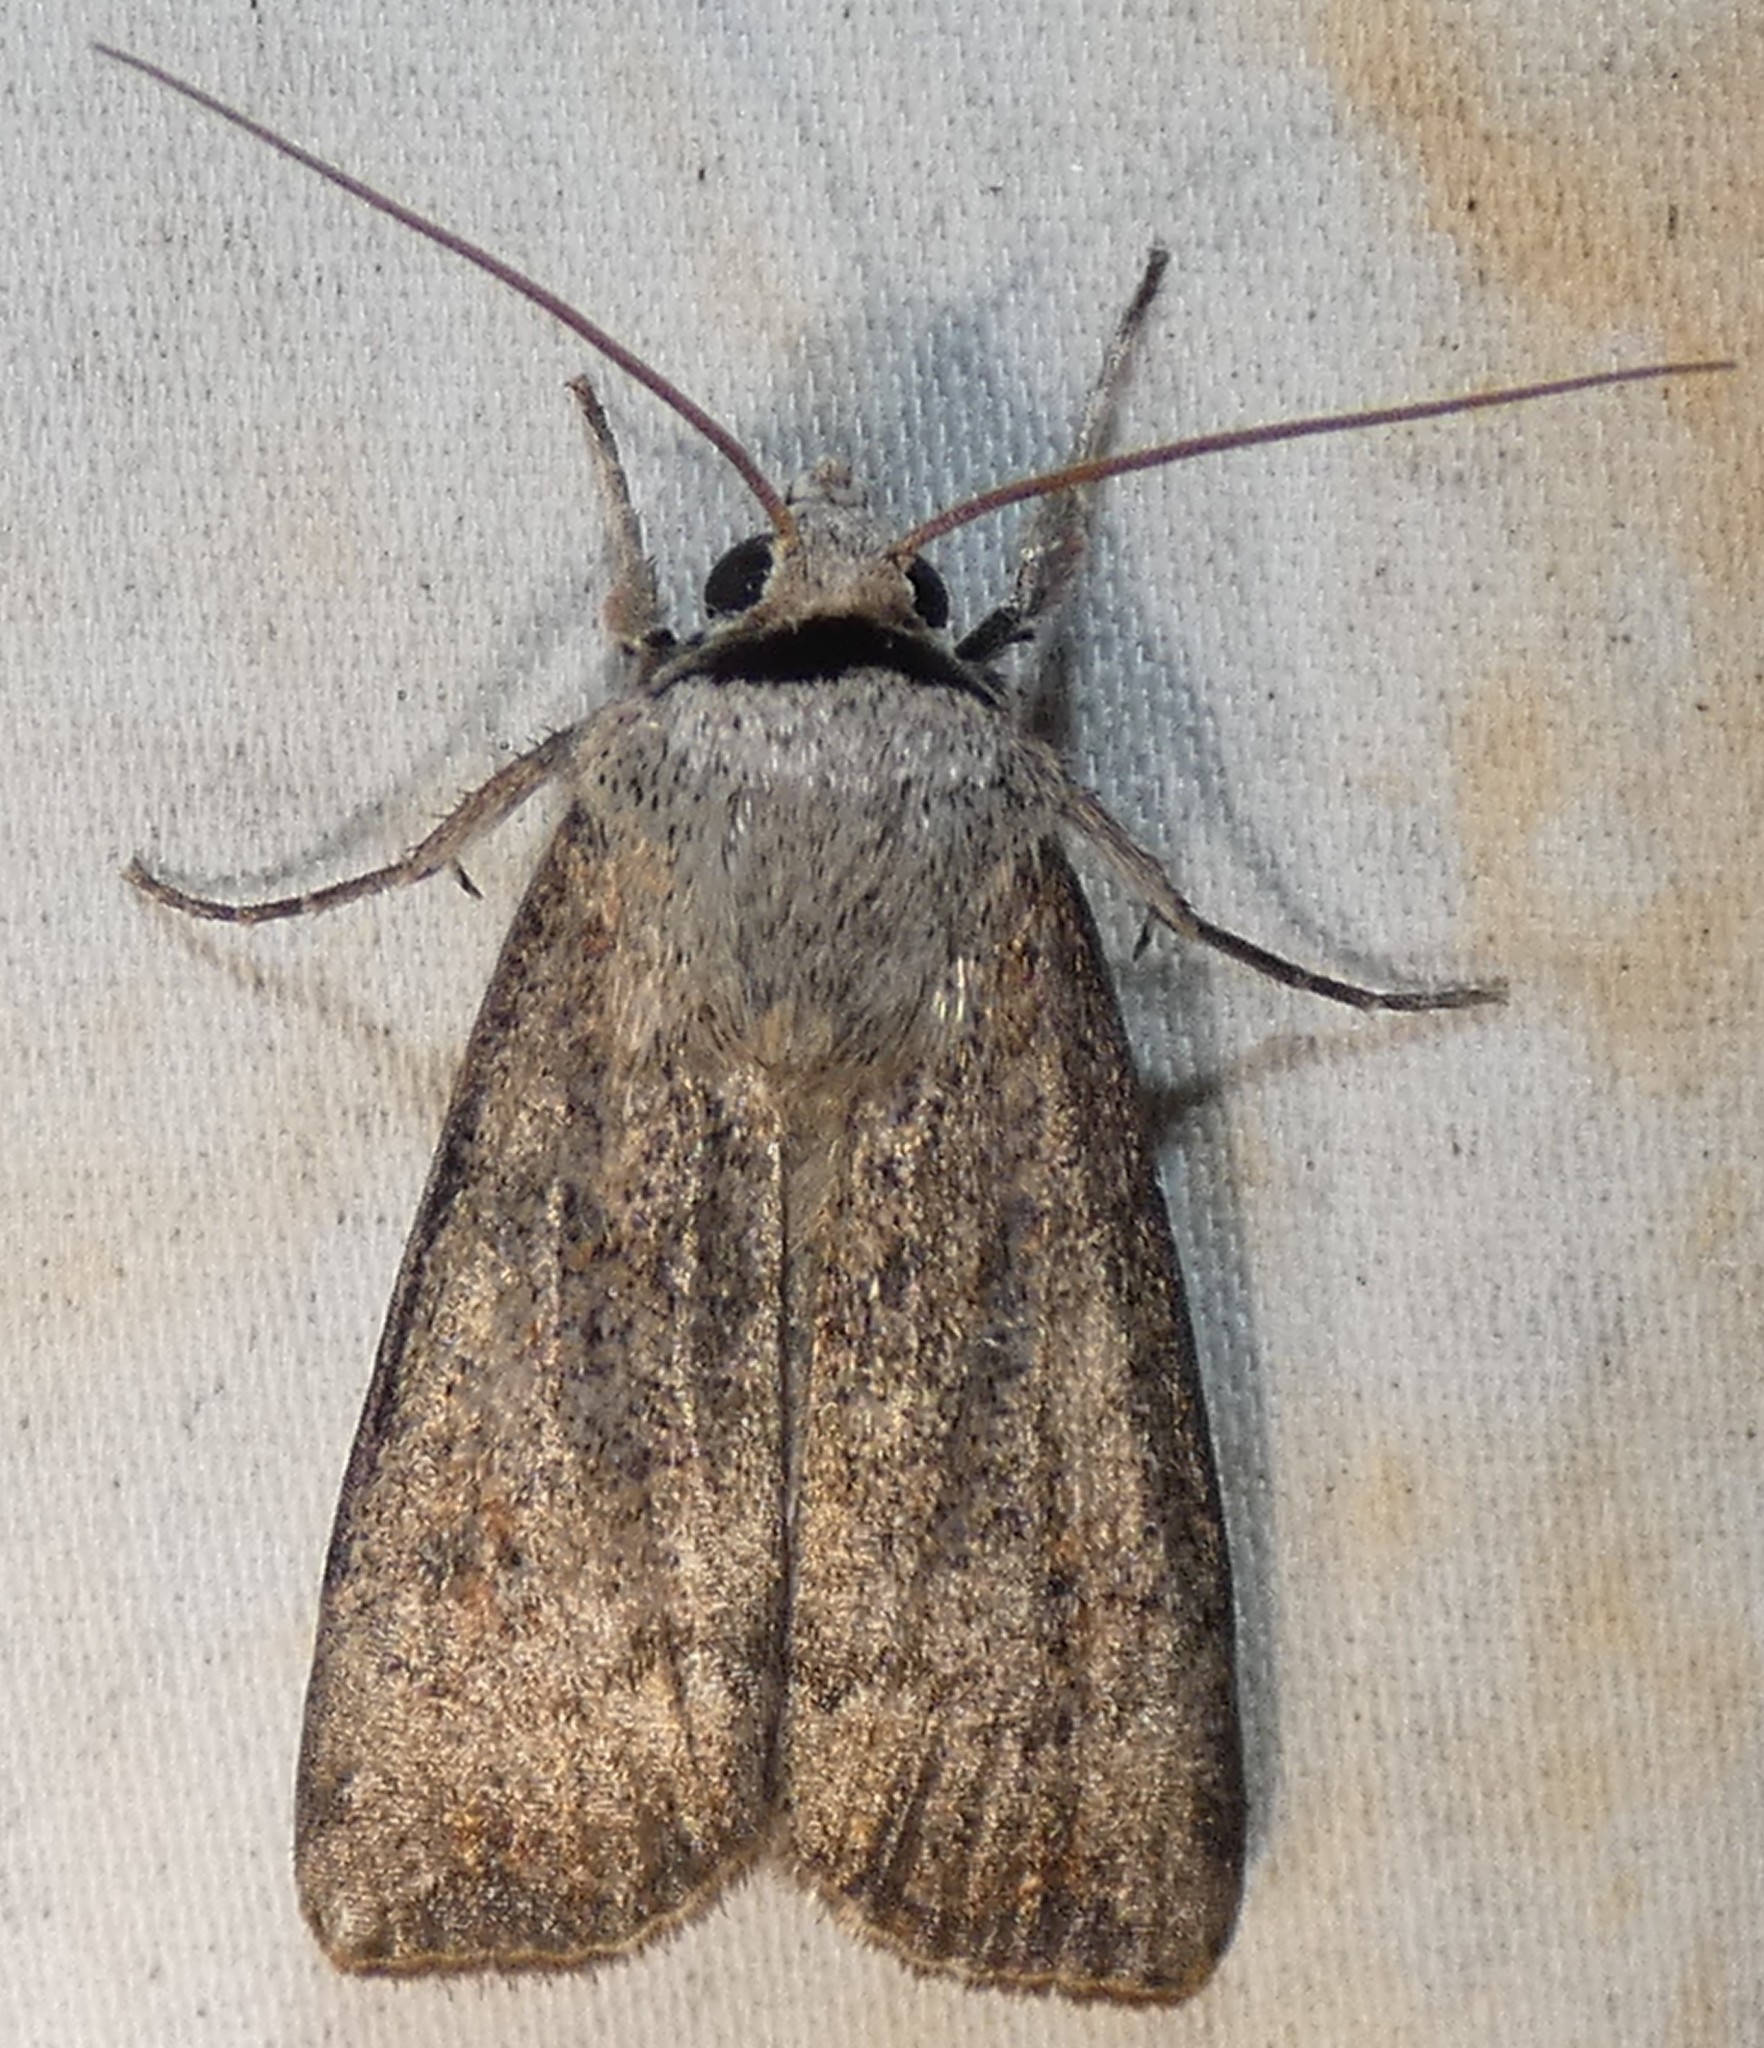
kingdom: Animalia
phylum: Arthropoda
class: Insecta
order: Lepidoptera
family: Noctuidae
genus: Anicla
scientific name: Anicla infecta
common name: Green cutworm
